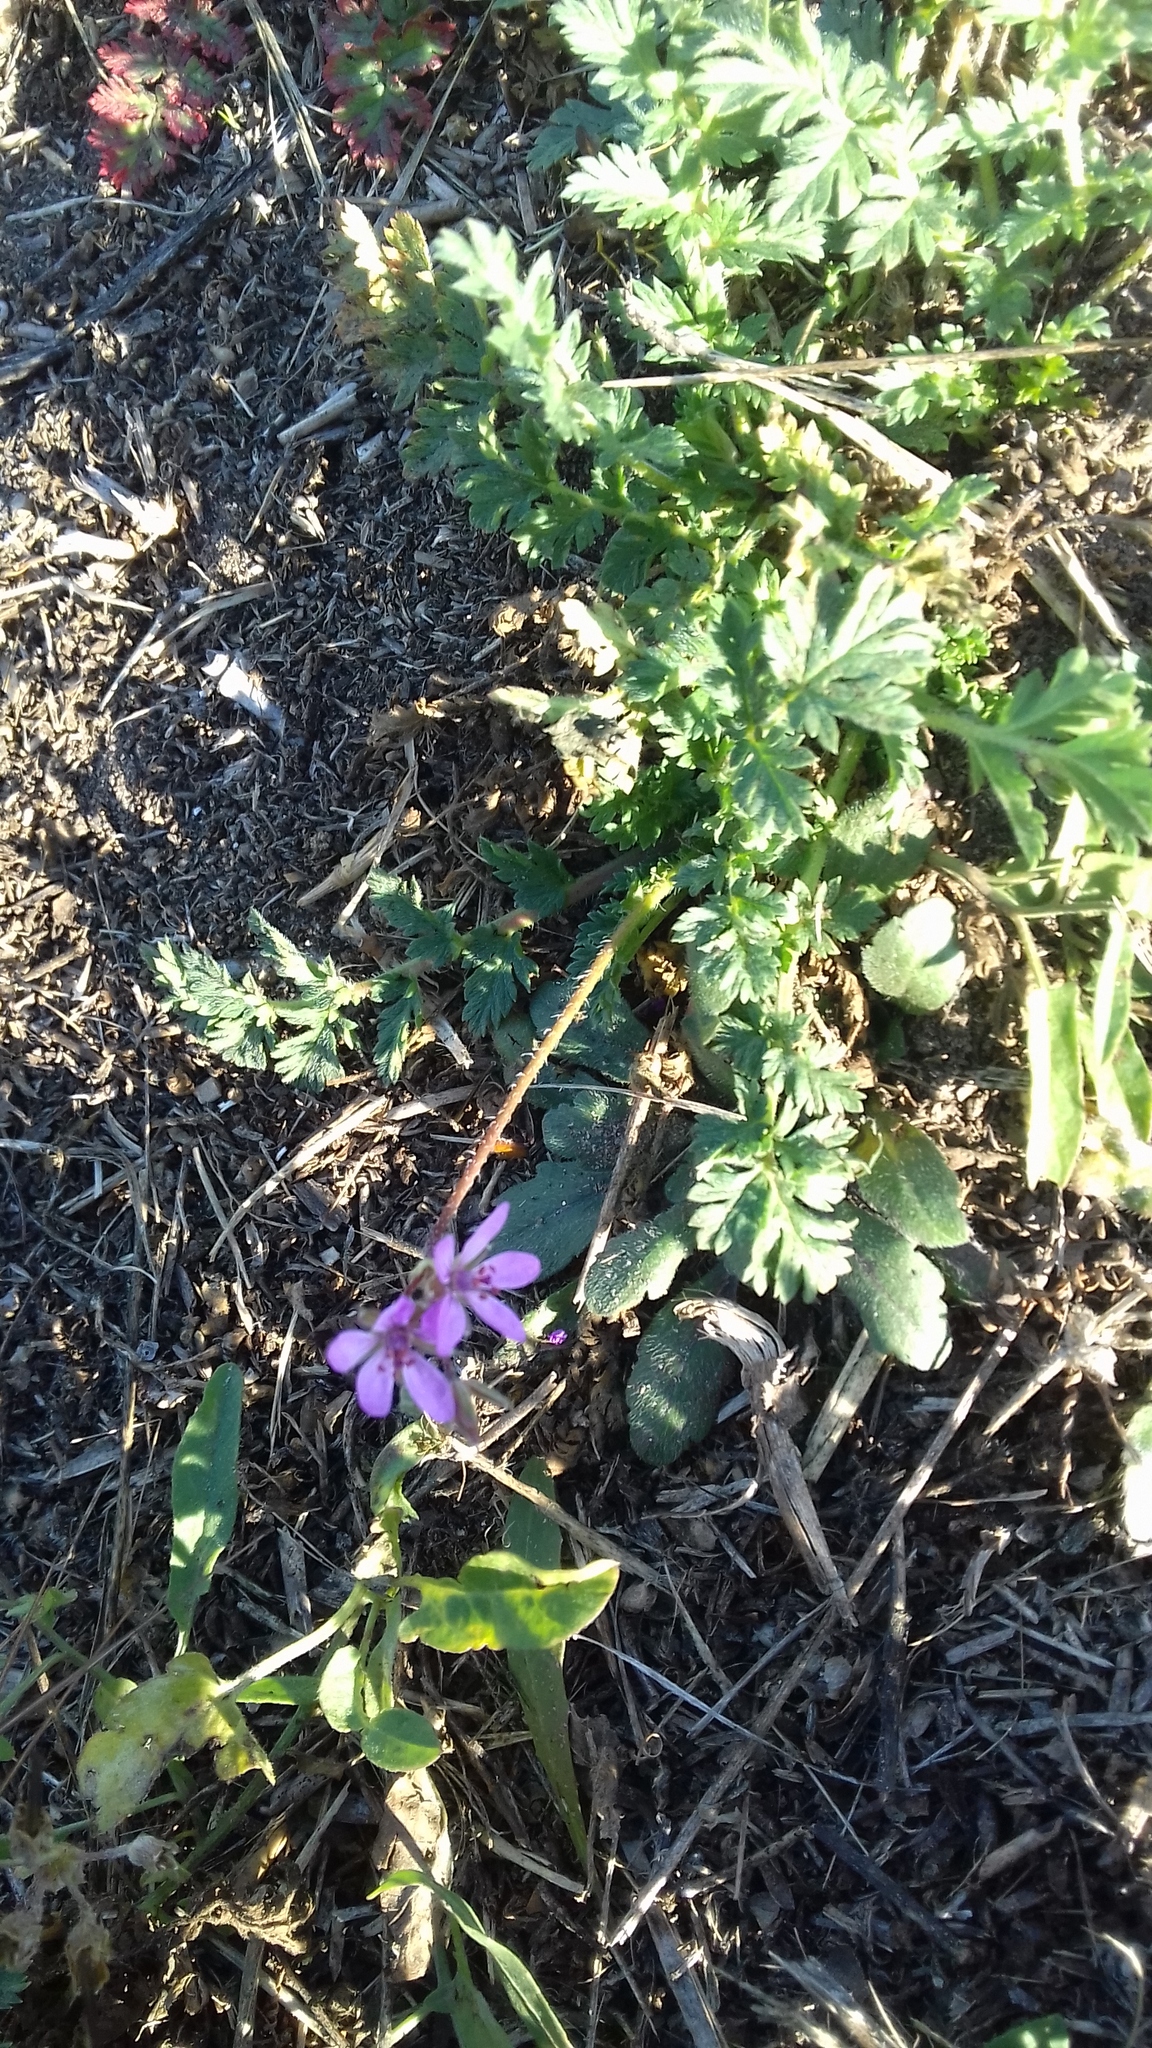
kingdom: Plantae
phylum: Tracheophyta
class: Magnoliopsida
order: Geraniales
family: Geraniaceae
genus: Erodium
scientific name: Erodium cicutarium
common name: Common stork's-bill
